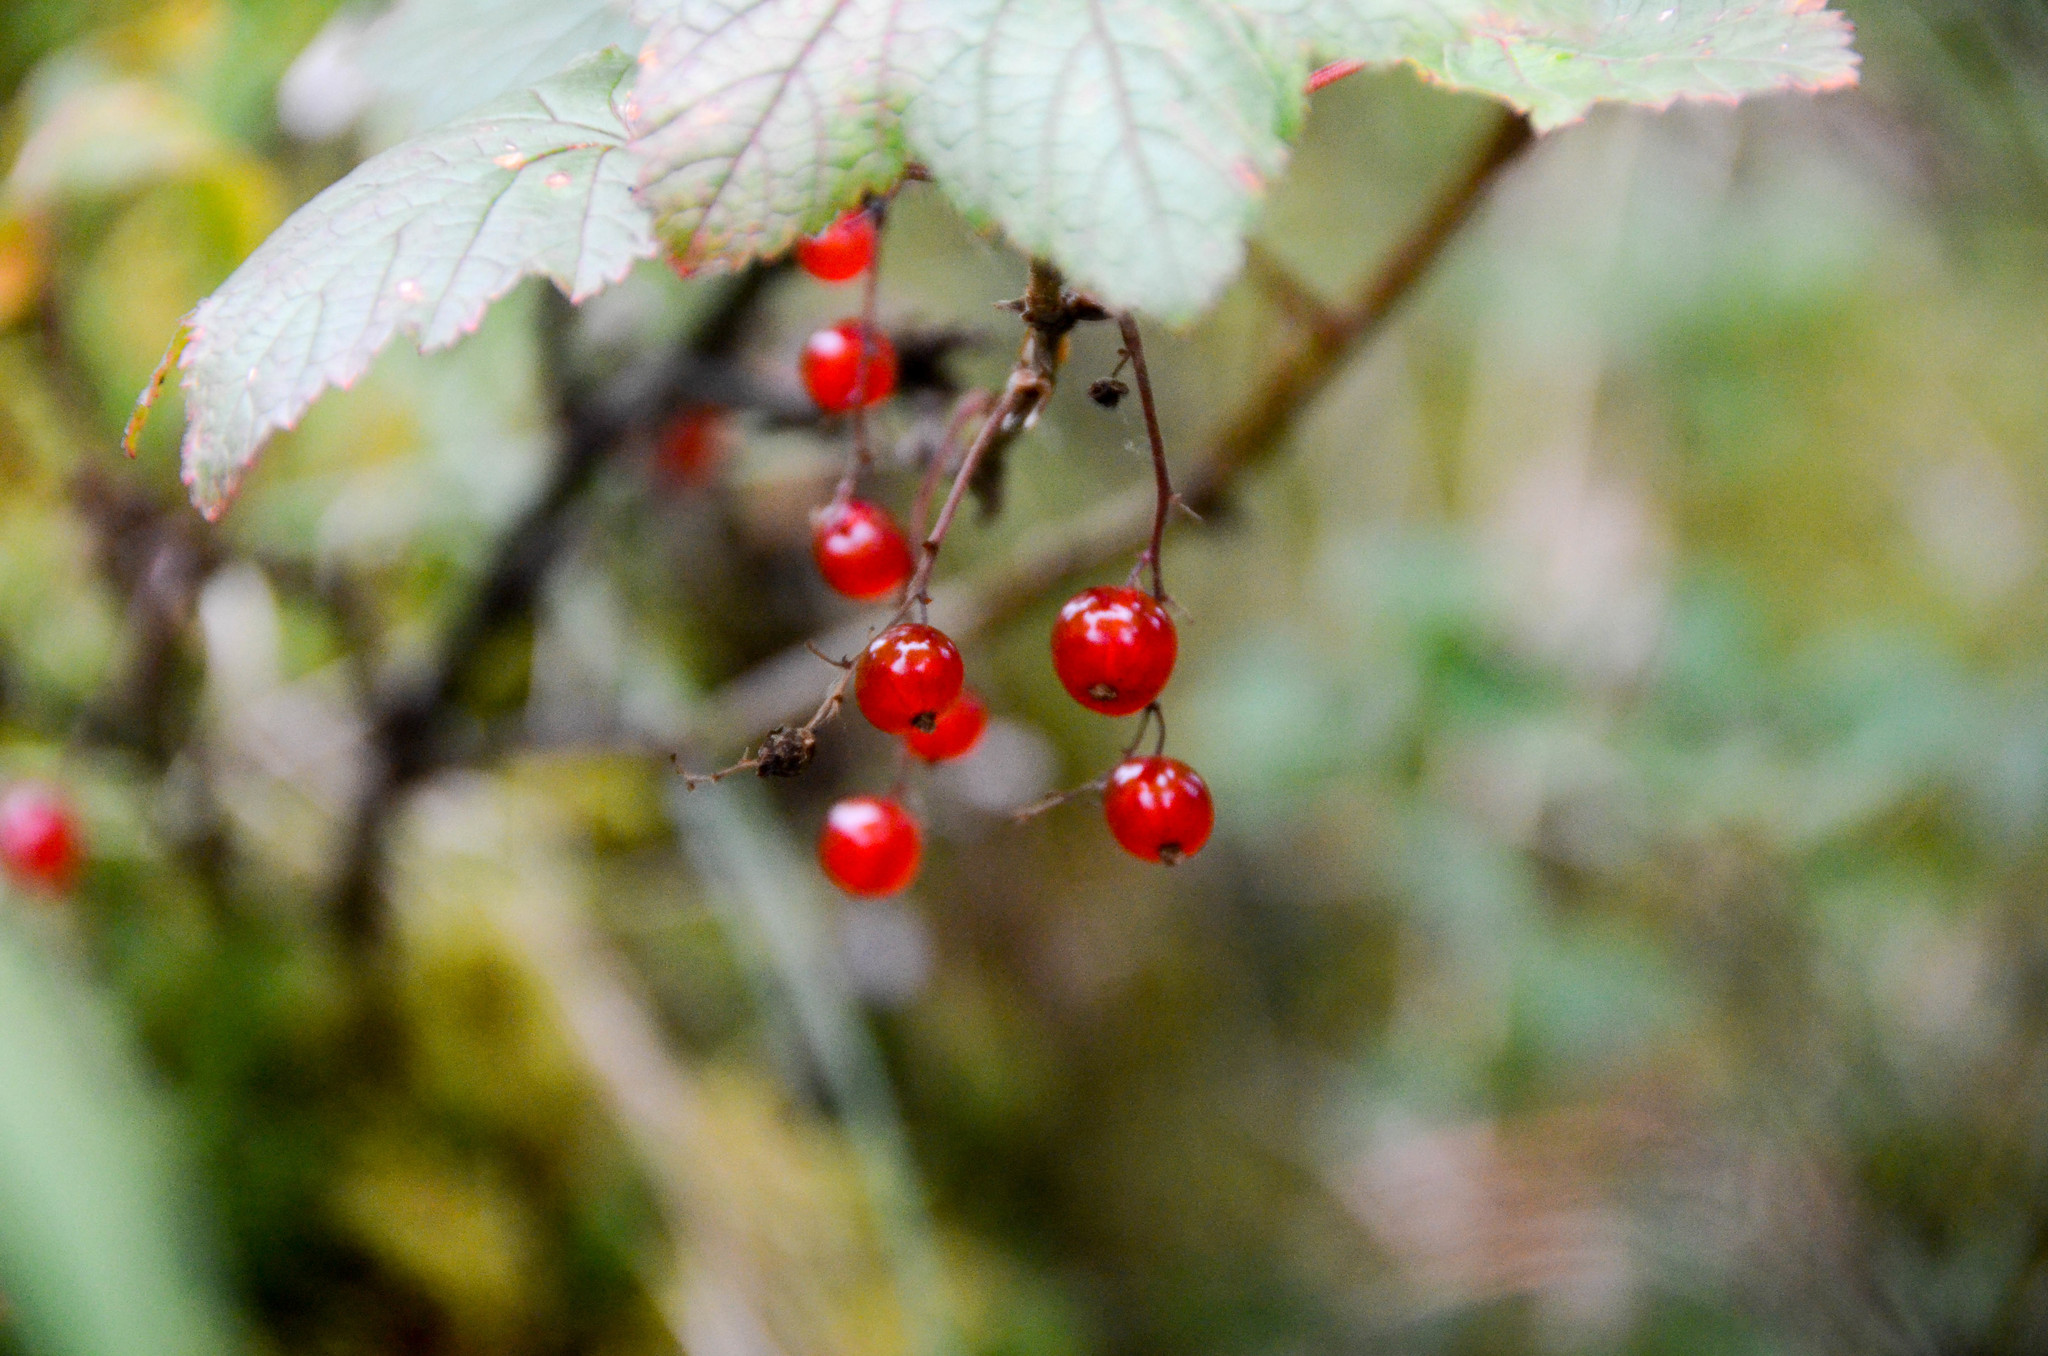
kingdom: Plantae
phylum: Tracheophyta
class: Magnoliopsida
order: Saxifragales
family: Grossulariaceae
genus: Ribes
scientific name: Ribes triste
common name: Swamp red currant
